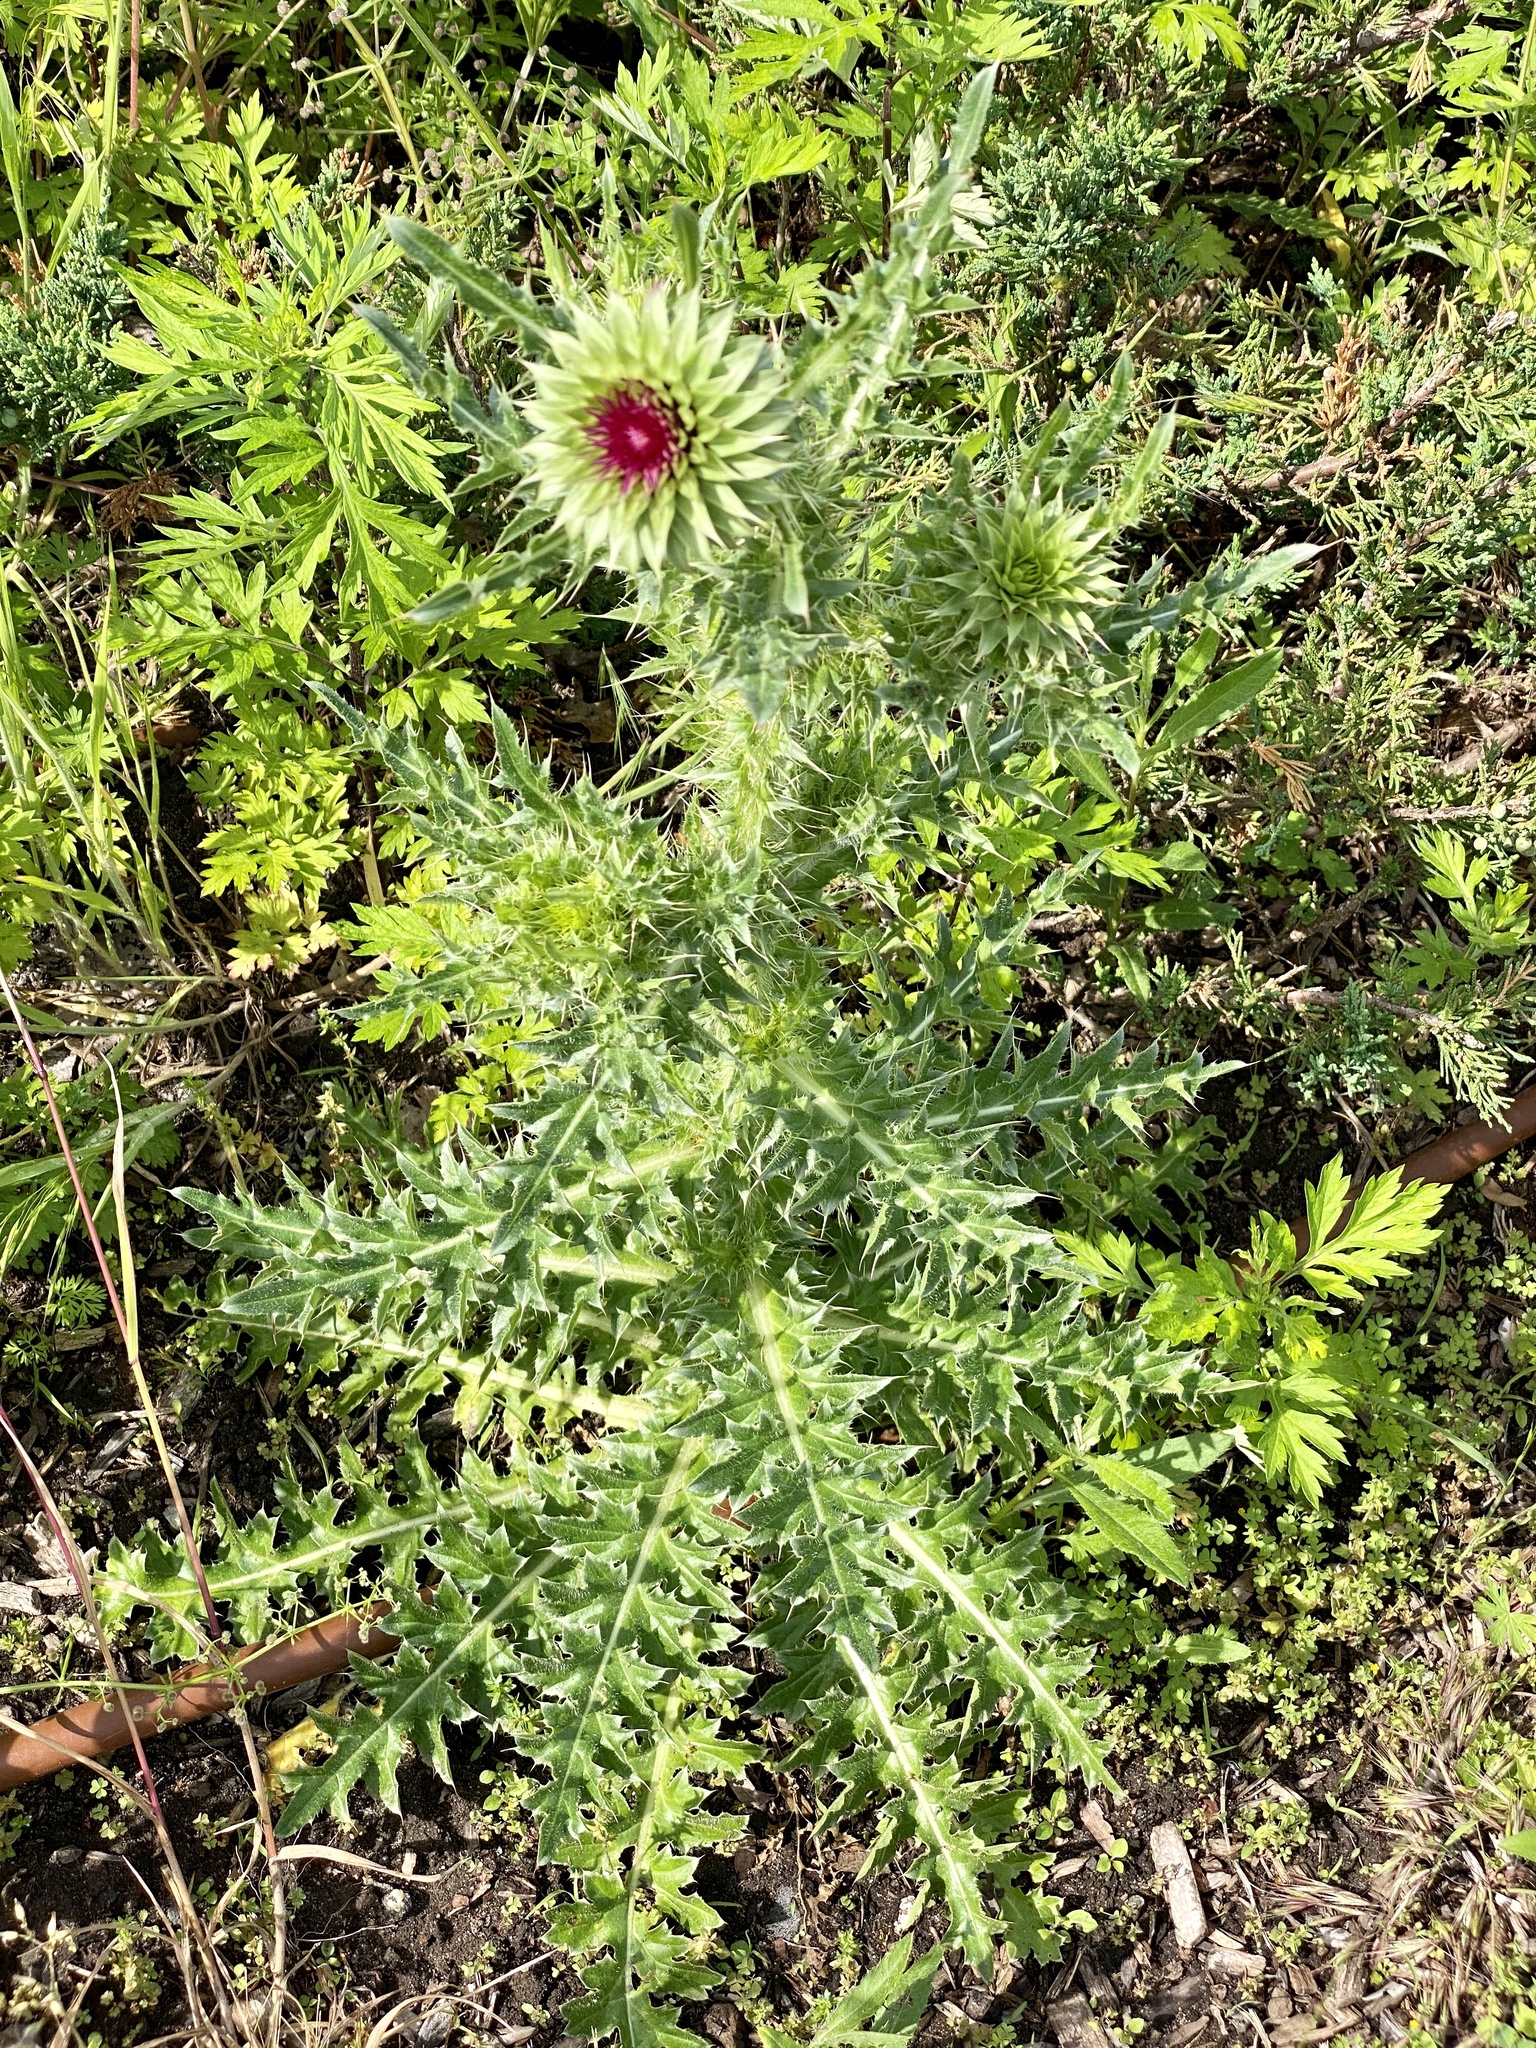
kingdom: Plantae
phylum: Tracheophyta
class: Magnoliopsida
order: Asterales
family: Asteraceae
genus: Carduus
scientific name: Carduus nutans
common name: Musk thistle
